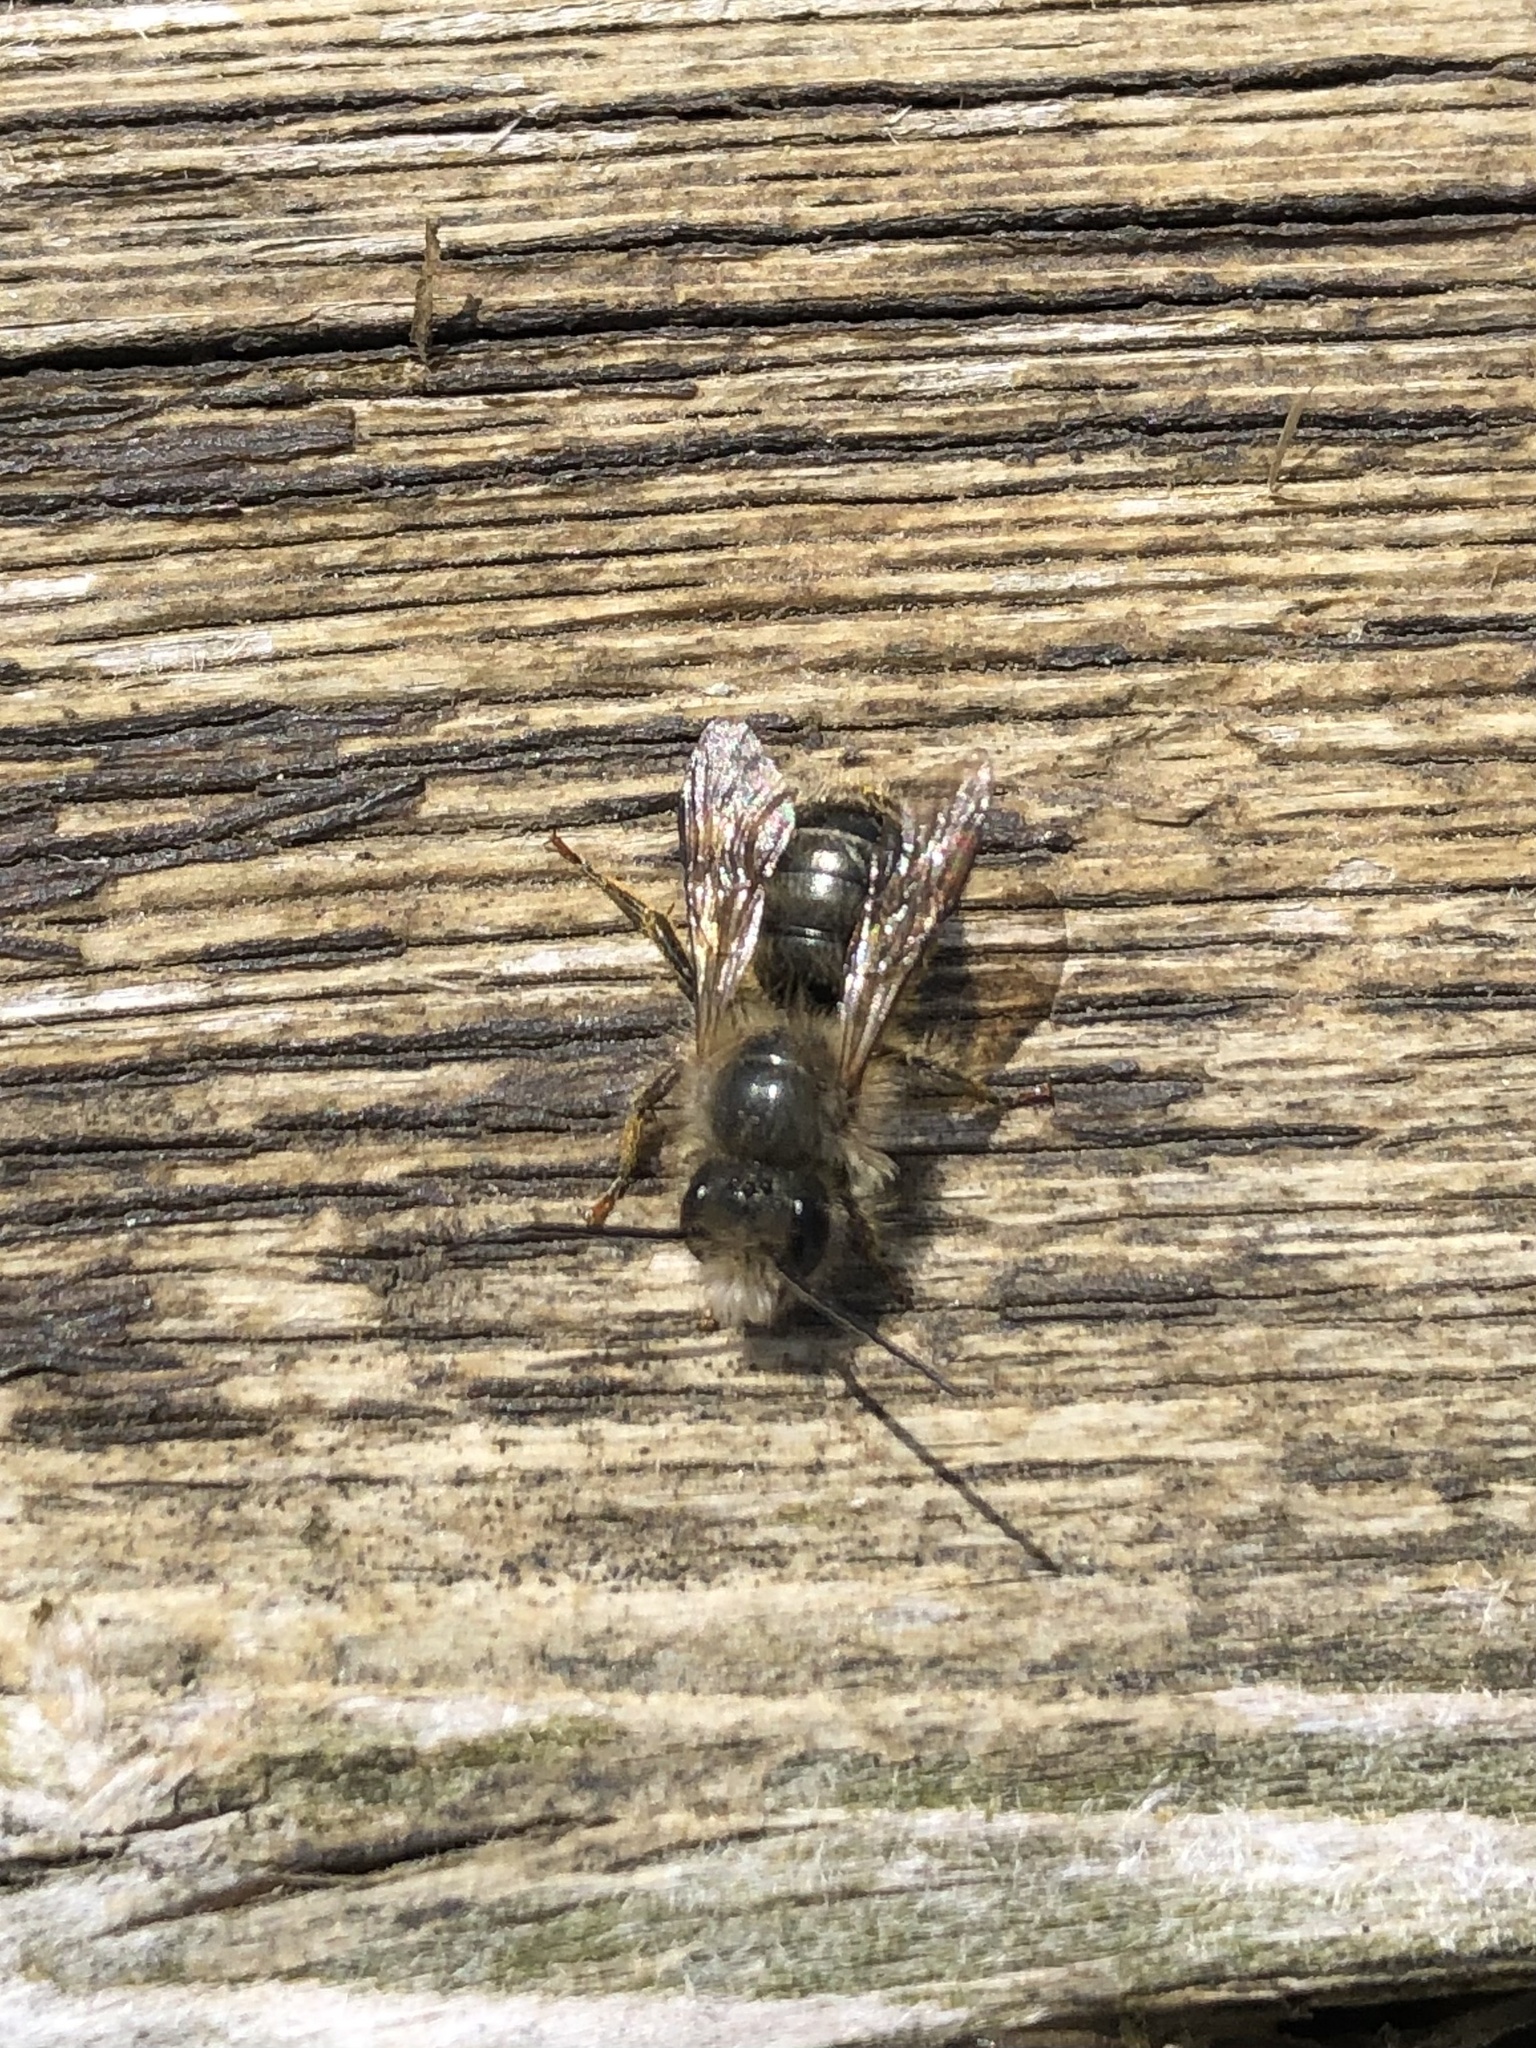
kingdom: Animalia
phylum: Arthropoda
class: Insecta
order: Hymenoptera
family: Megachilidae
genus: Osmia
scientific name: Osmia cornifrons
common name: Horn-faced bee
